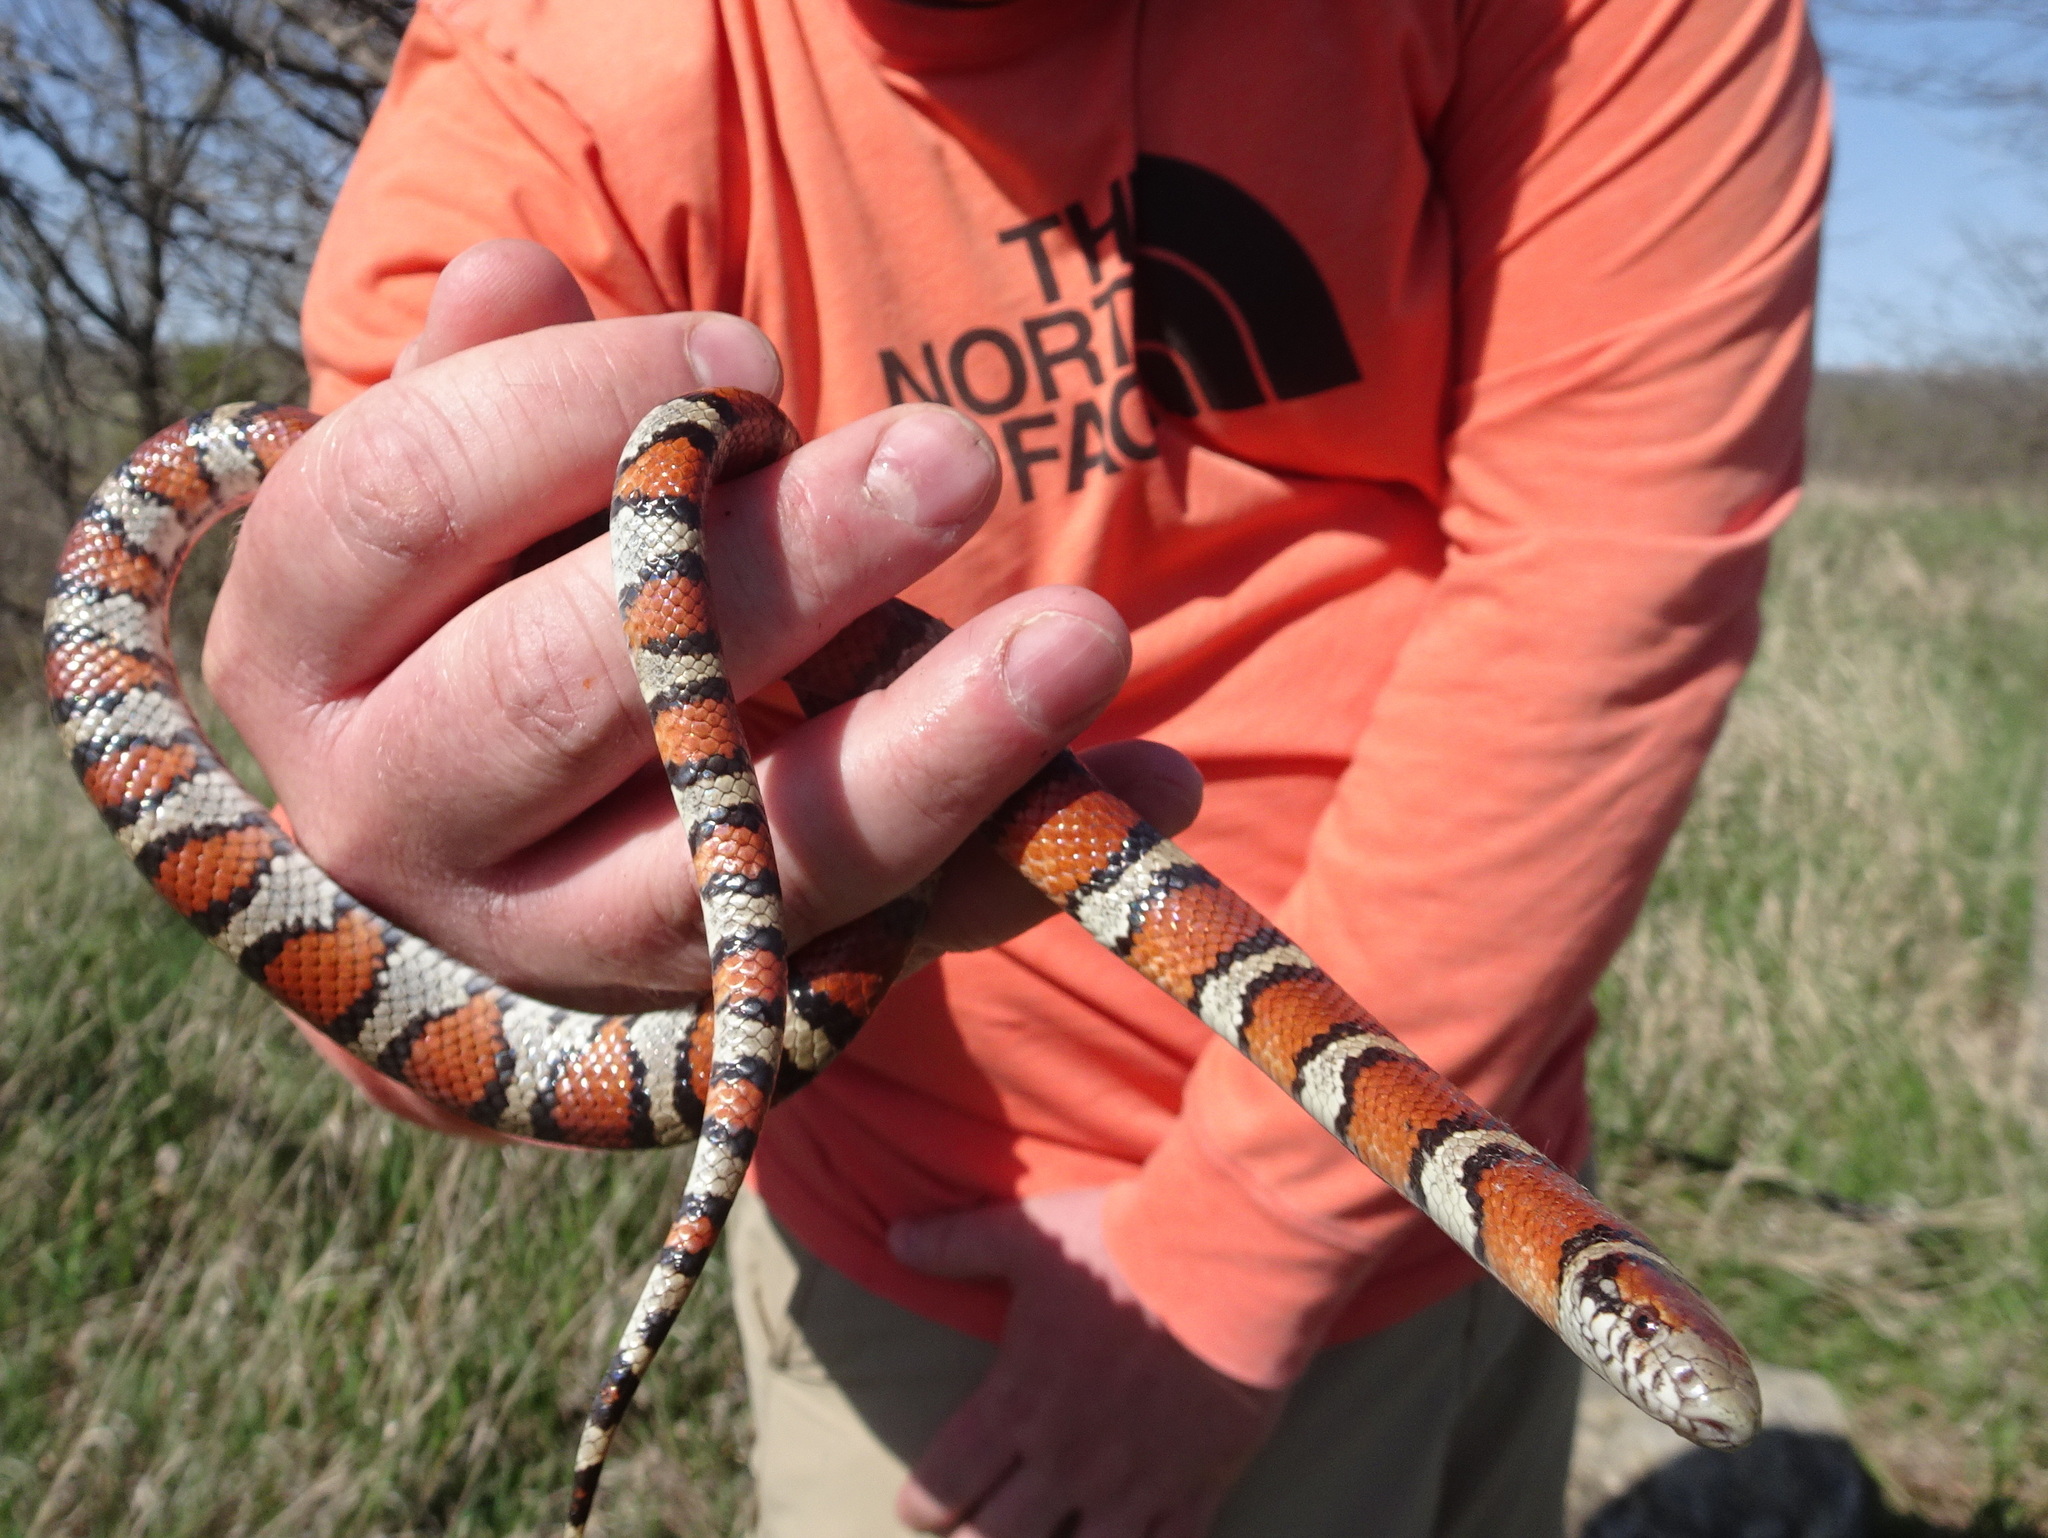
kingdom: Animalia
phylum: Chordata
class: Squamata
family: Colubridae
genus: Lampropeltis
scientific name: Lampropeltis gentilis
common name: Central plains milksnake
